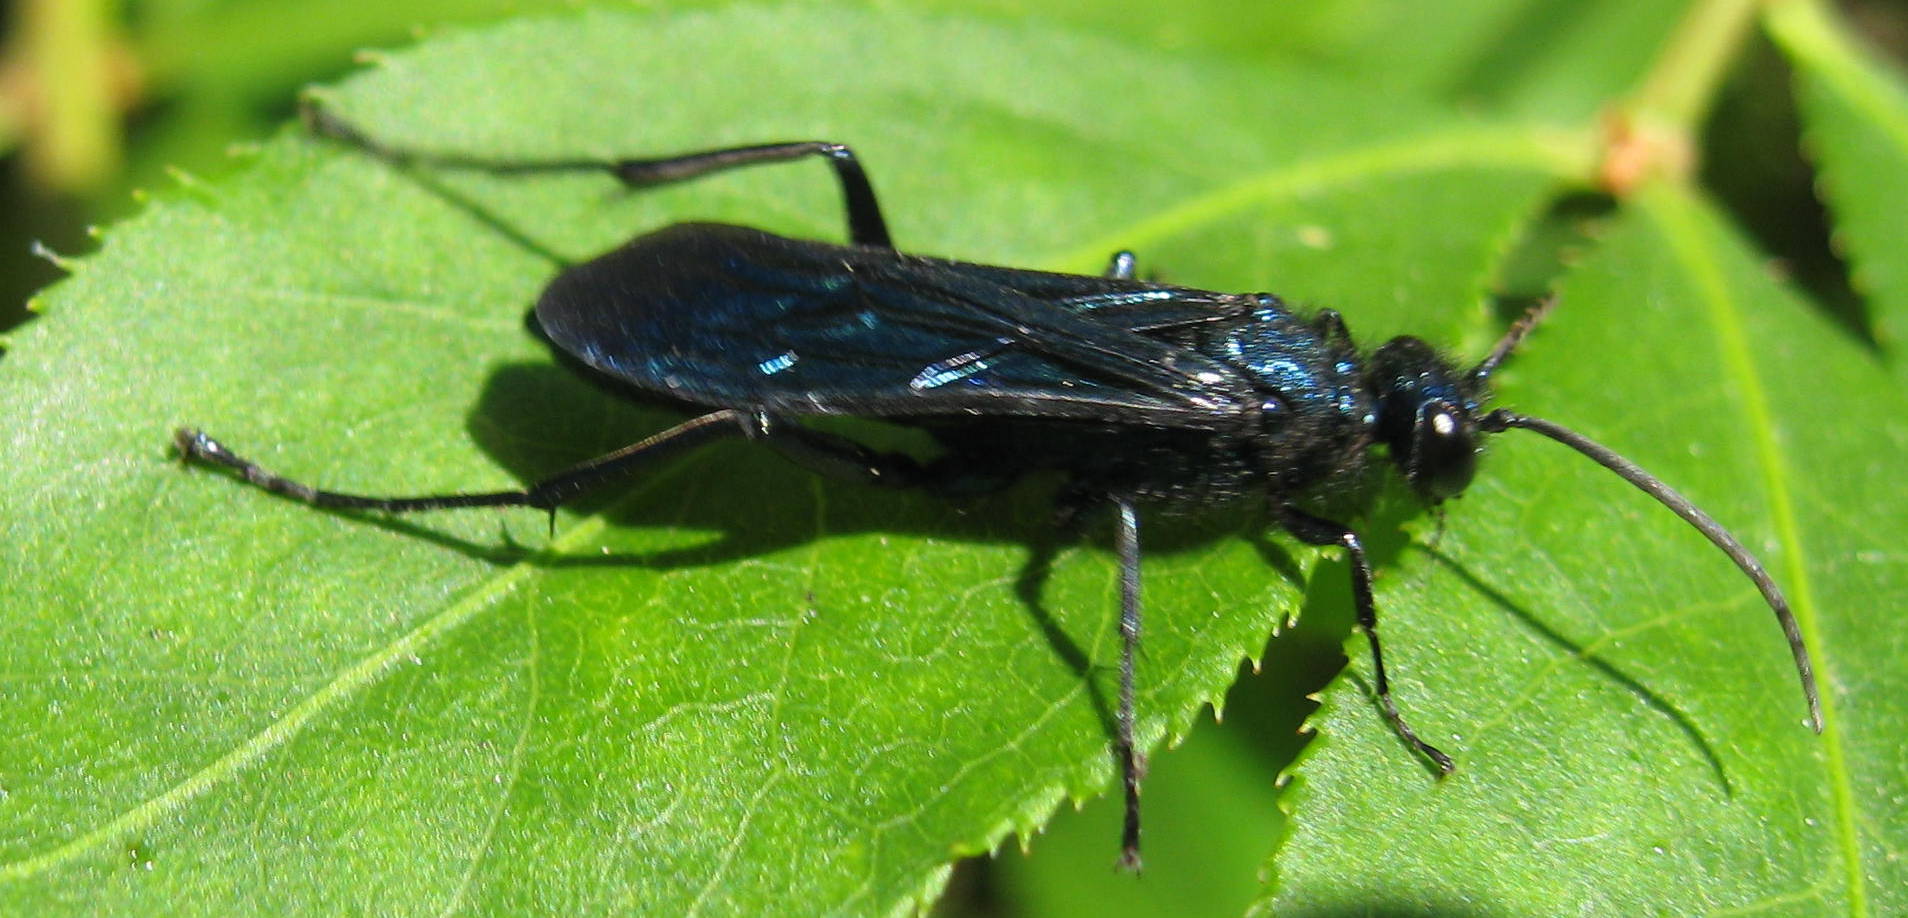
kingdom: Animalia
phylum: Arthropoda
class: Insecta
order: Hymenoptera
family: Sphecidae
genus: Chalybion
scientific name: Chalybion californicum
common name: Mud dauber
